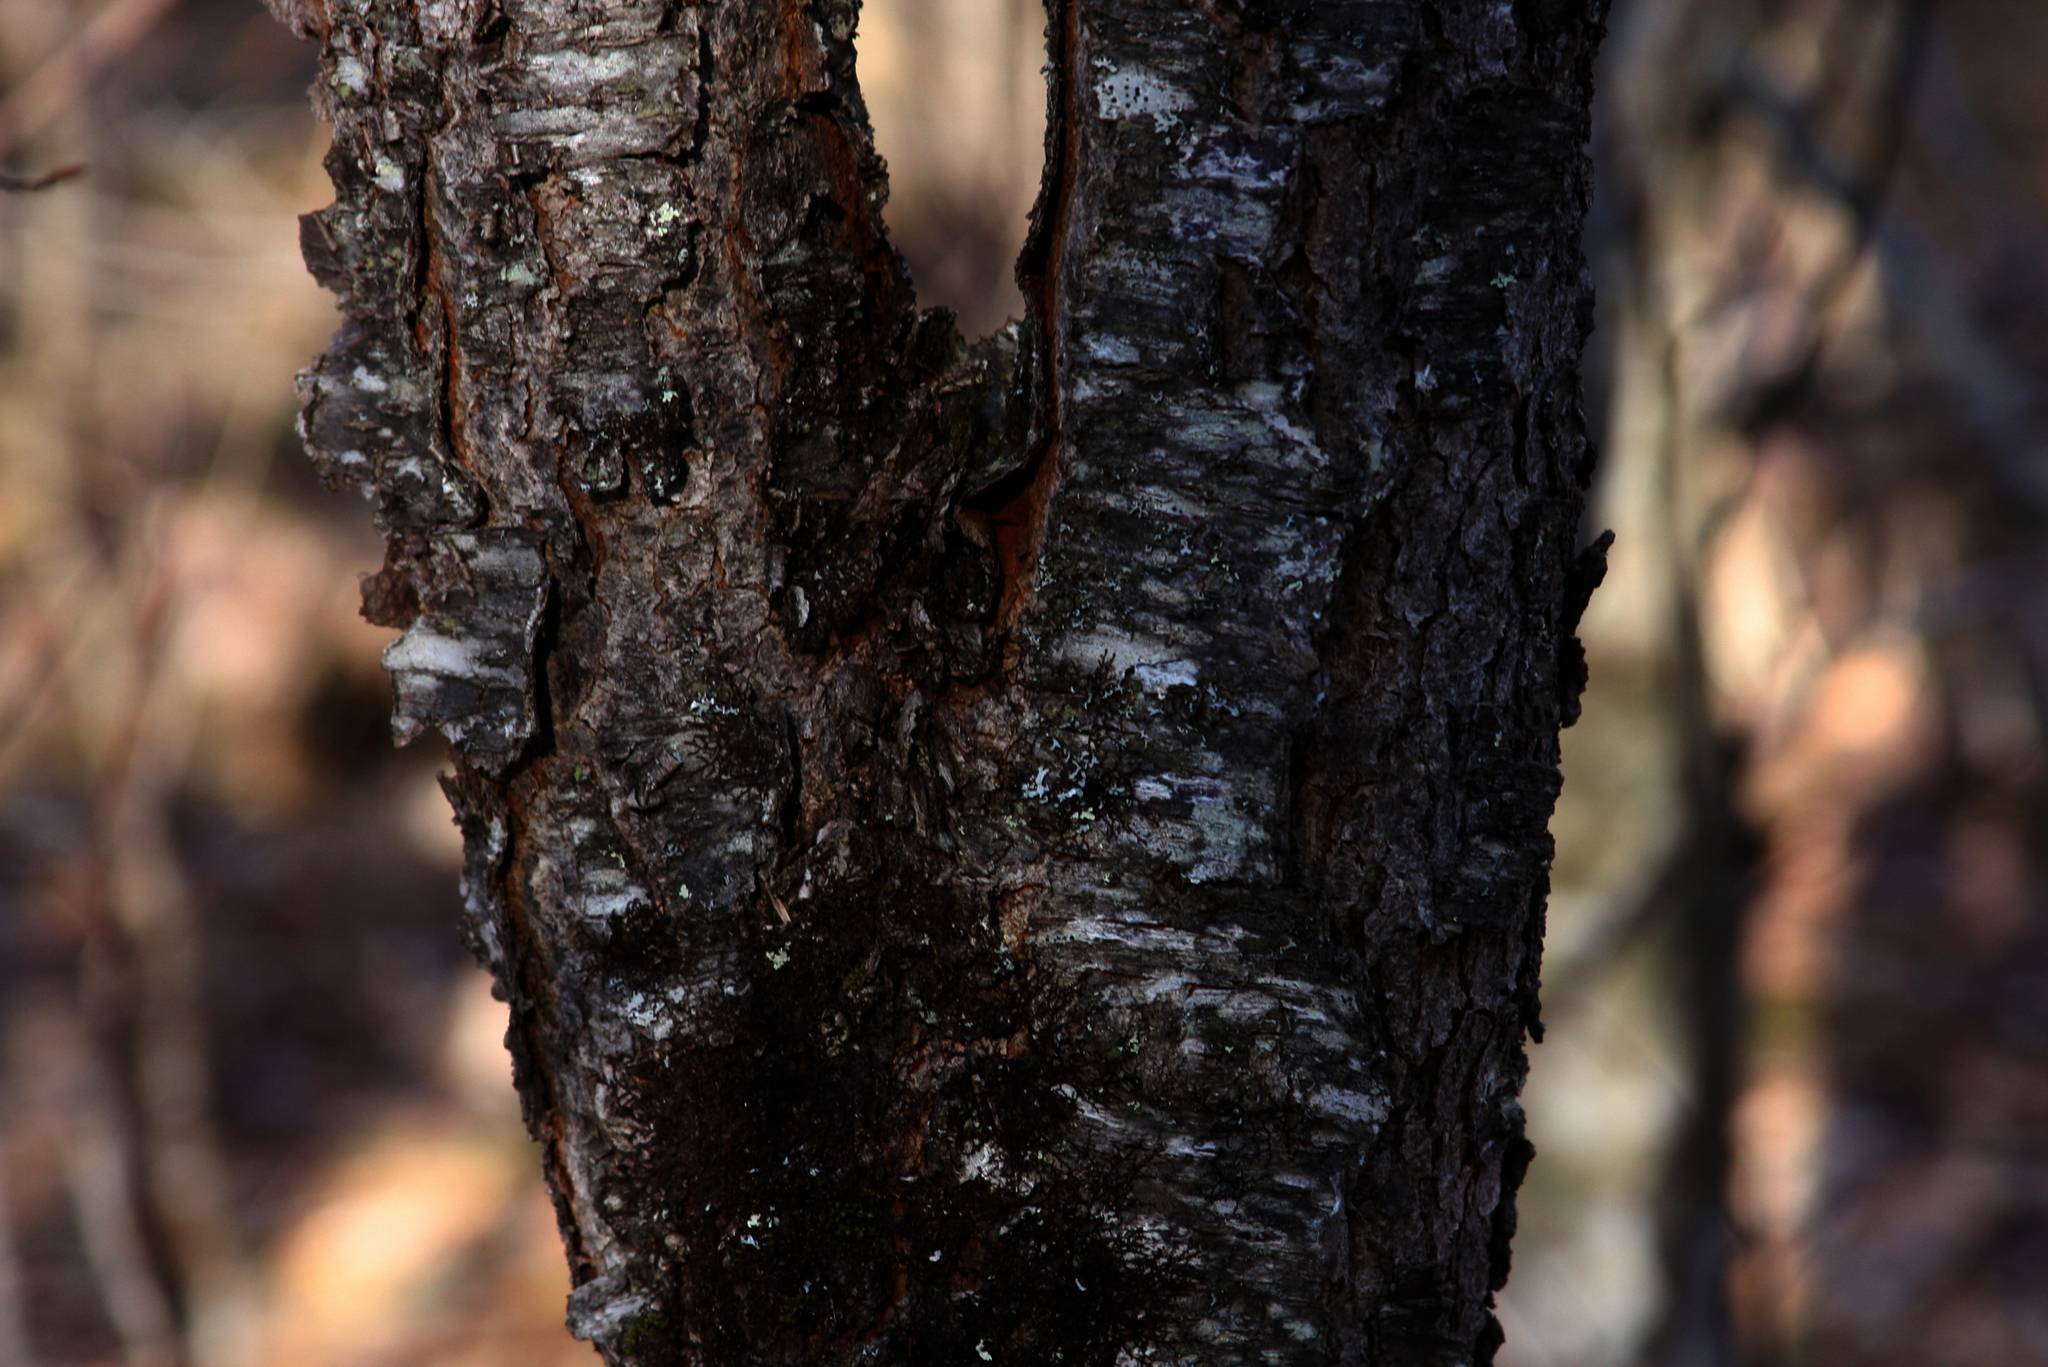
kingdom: Plantae
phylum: Tracheophyta
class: Magnoliopsida
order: Rosales
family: Rosaceae
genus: Prunus
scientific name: Prunus serotina
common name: Black cherry
